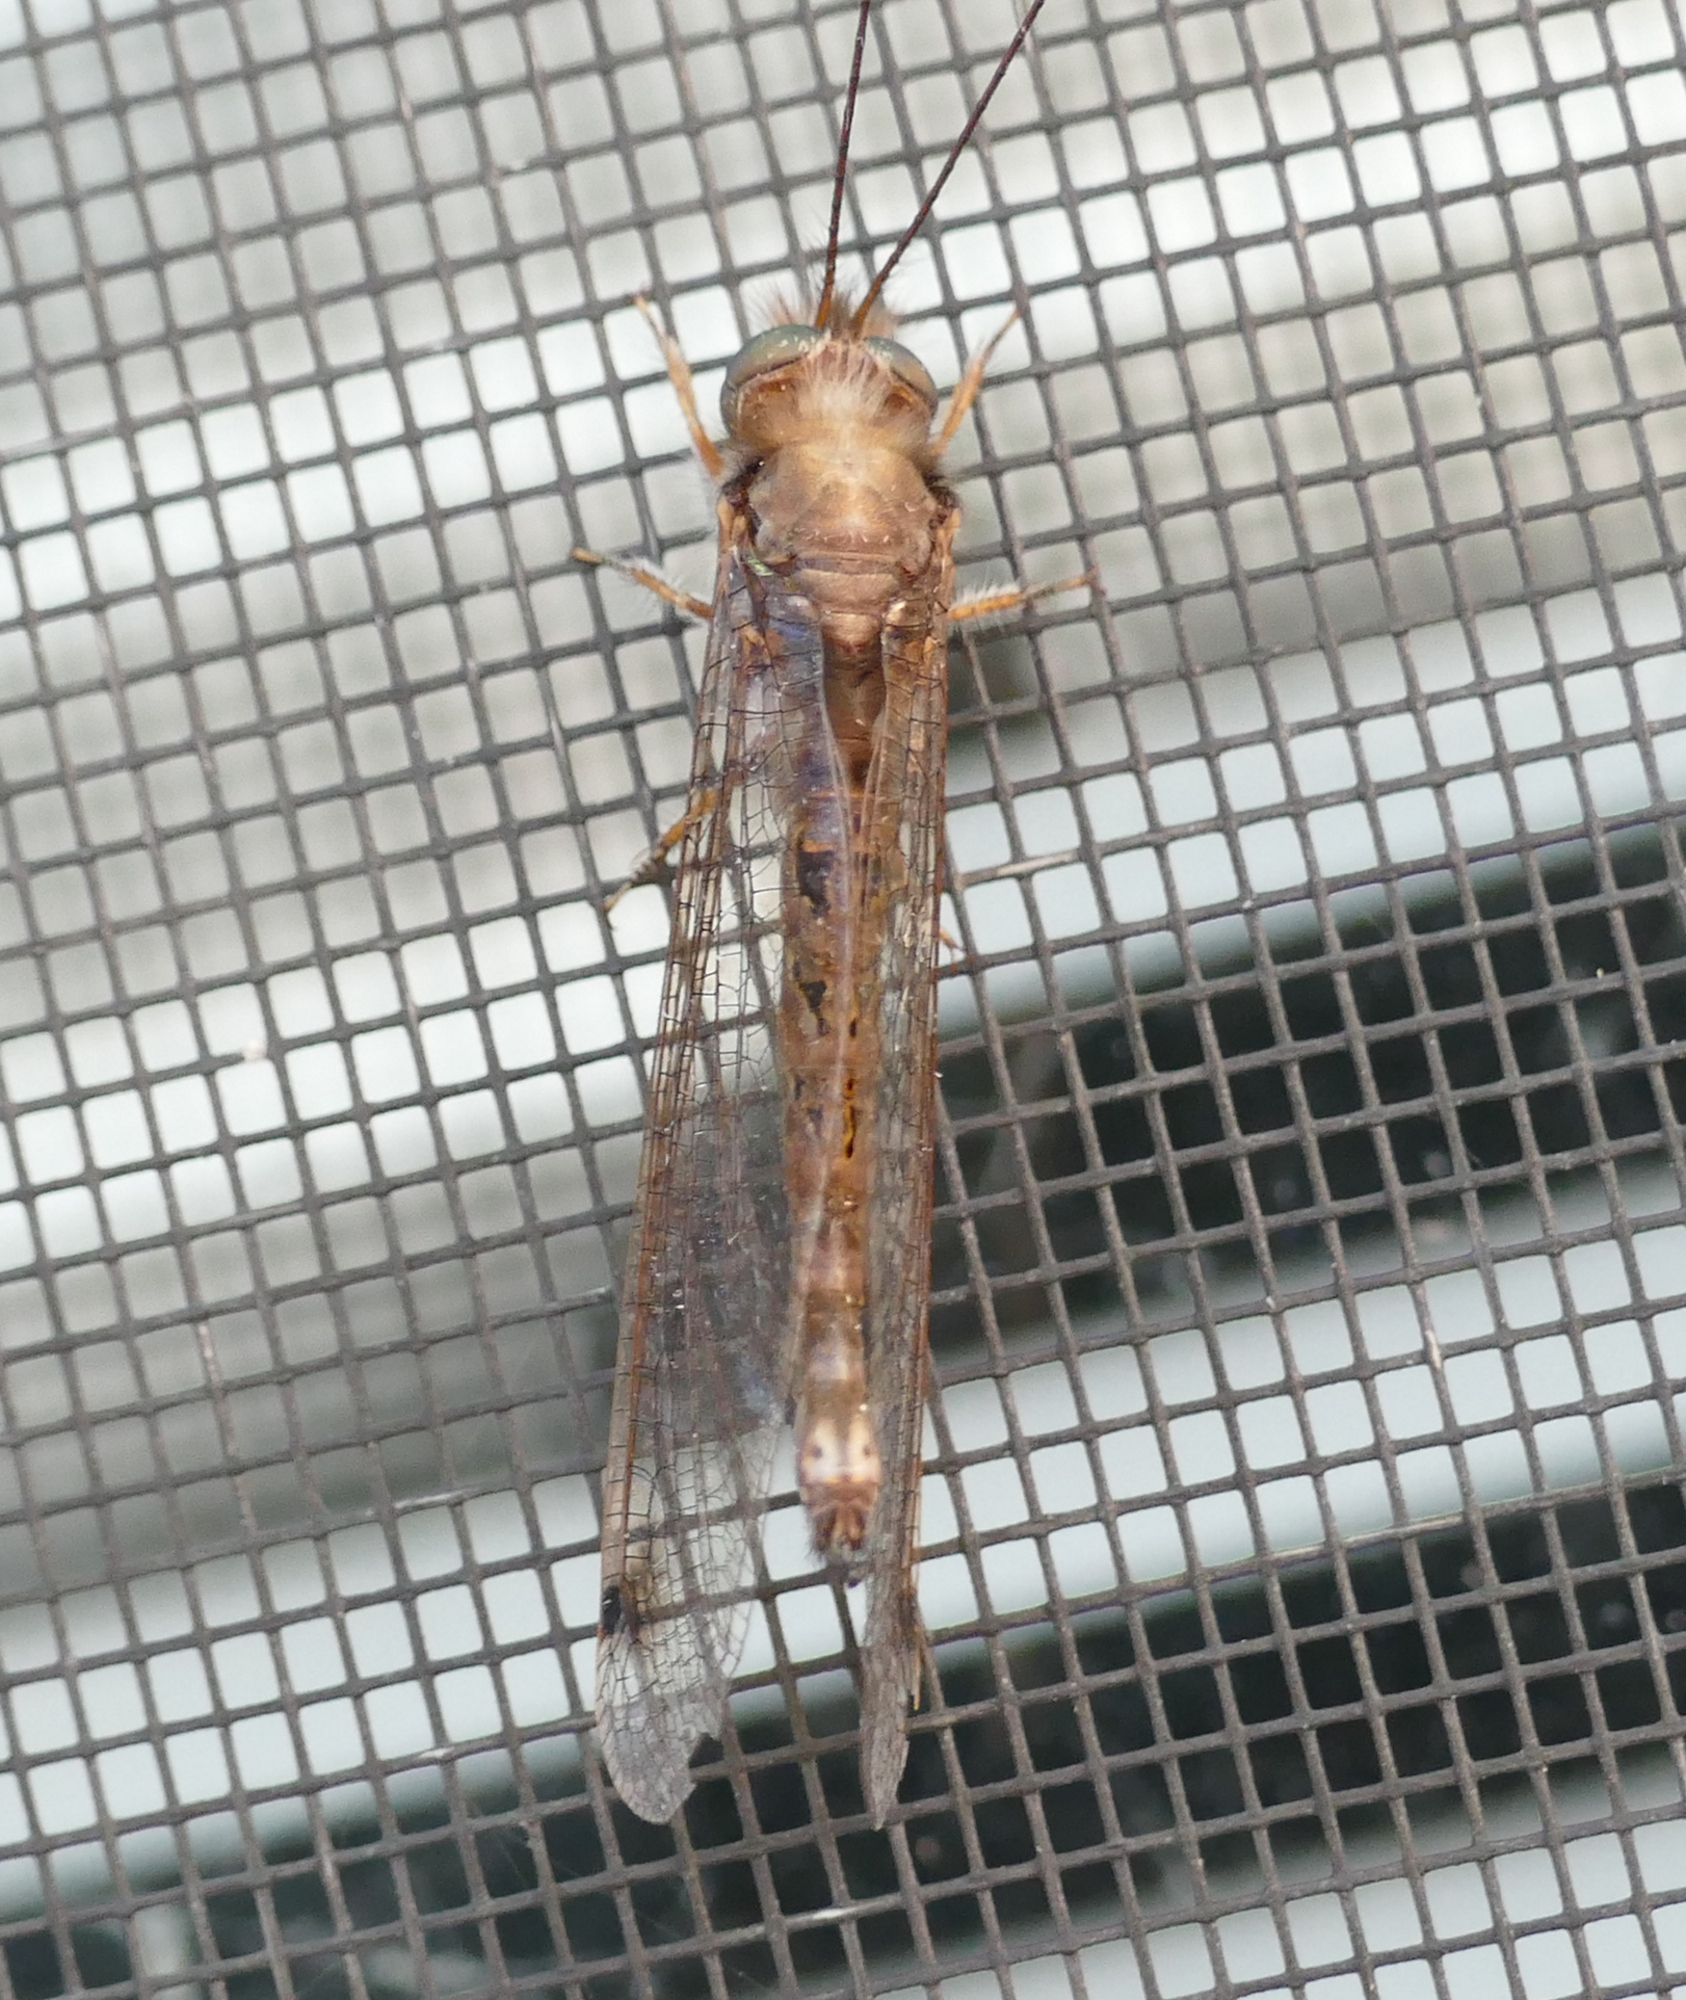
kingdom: Animalia
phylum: Arthropoda
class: Insecta
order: Neuroptera
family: Ascalaphidae
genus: Ululodes
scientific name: Ululodes macleayanus
